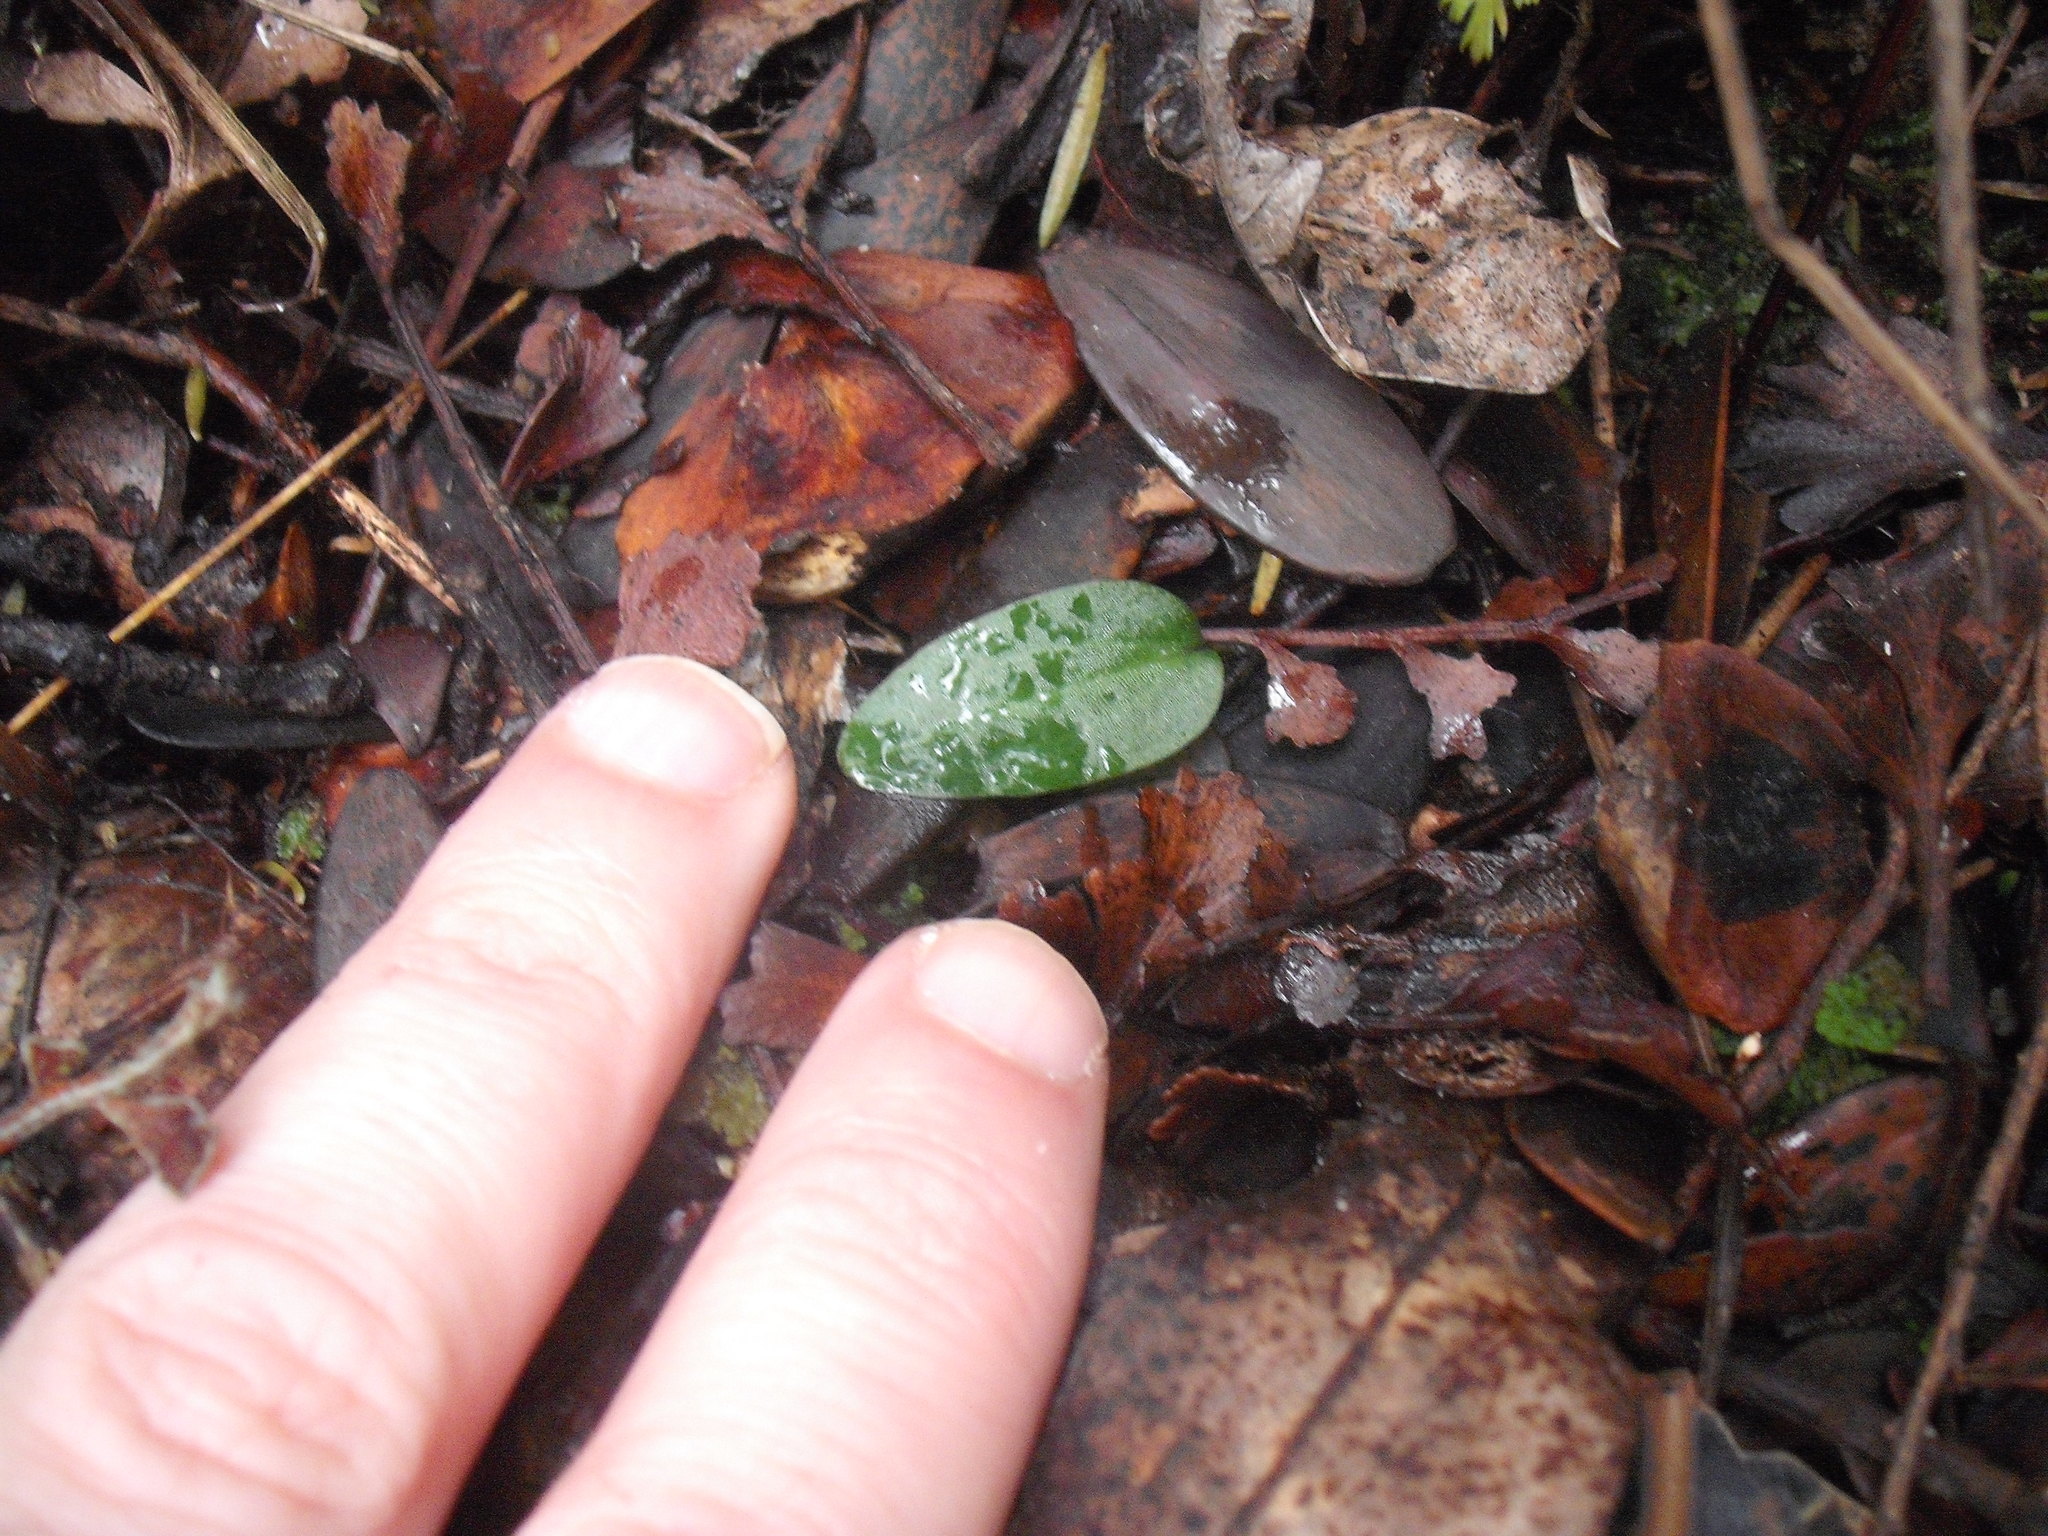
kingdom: Plantae
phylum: Tracheophyta
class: Liliopsida
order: Asparagales
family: Orchidaceae
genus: Cyrtostylis
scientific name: Cyrtostylis oblonga
